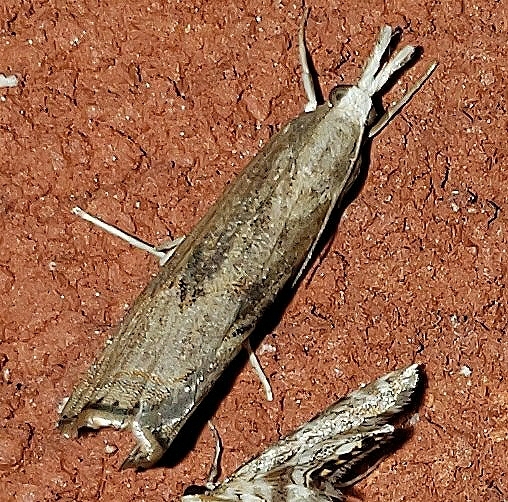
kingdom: Animalia
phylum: Arthropoda
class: Insecta
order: Lepidoptera
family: Crambidae
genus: Parapediasia
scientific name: Parapediasia teterellus
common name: Bluegrass webworm moth
